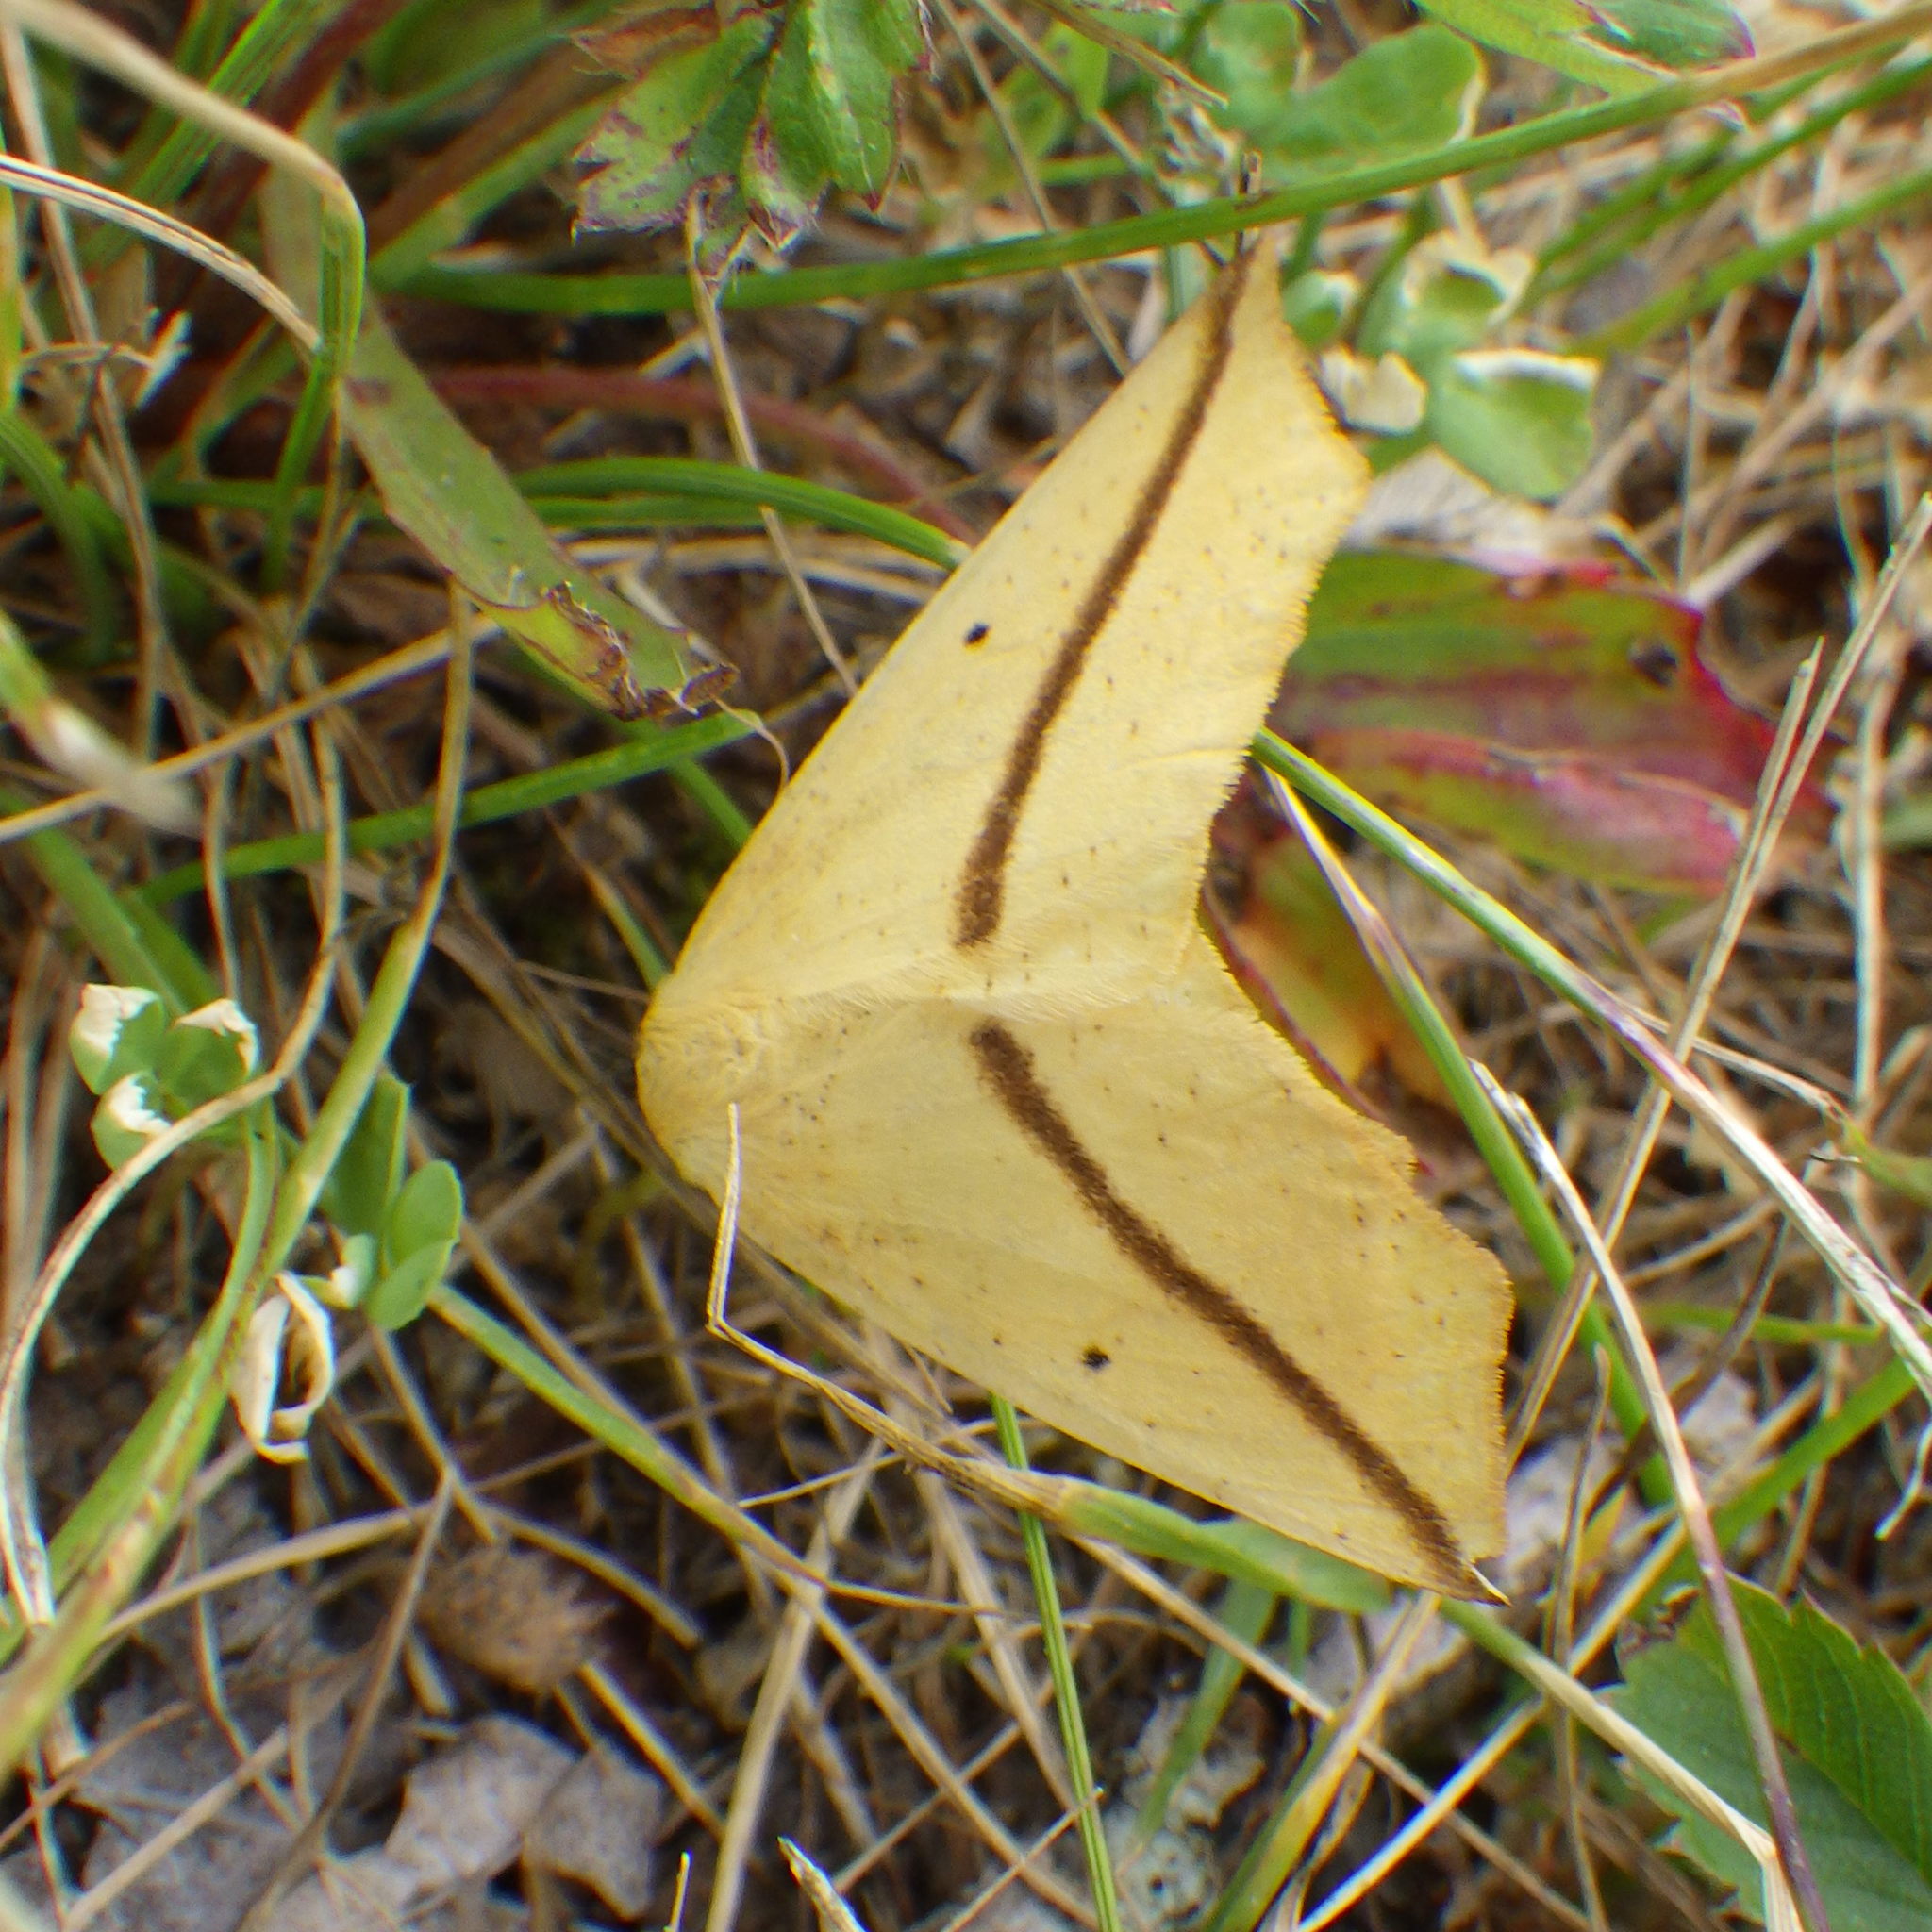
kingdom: Animalia
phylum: Arthropoda
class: Insecta
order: Lepidoptera
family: Geometridae
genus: Tetracis
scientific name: Tetracis crocallata
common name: Yellow slant-line
